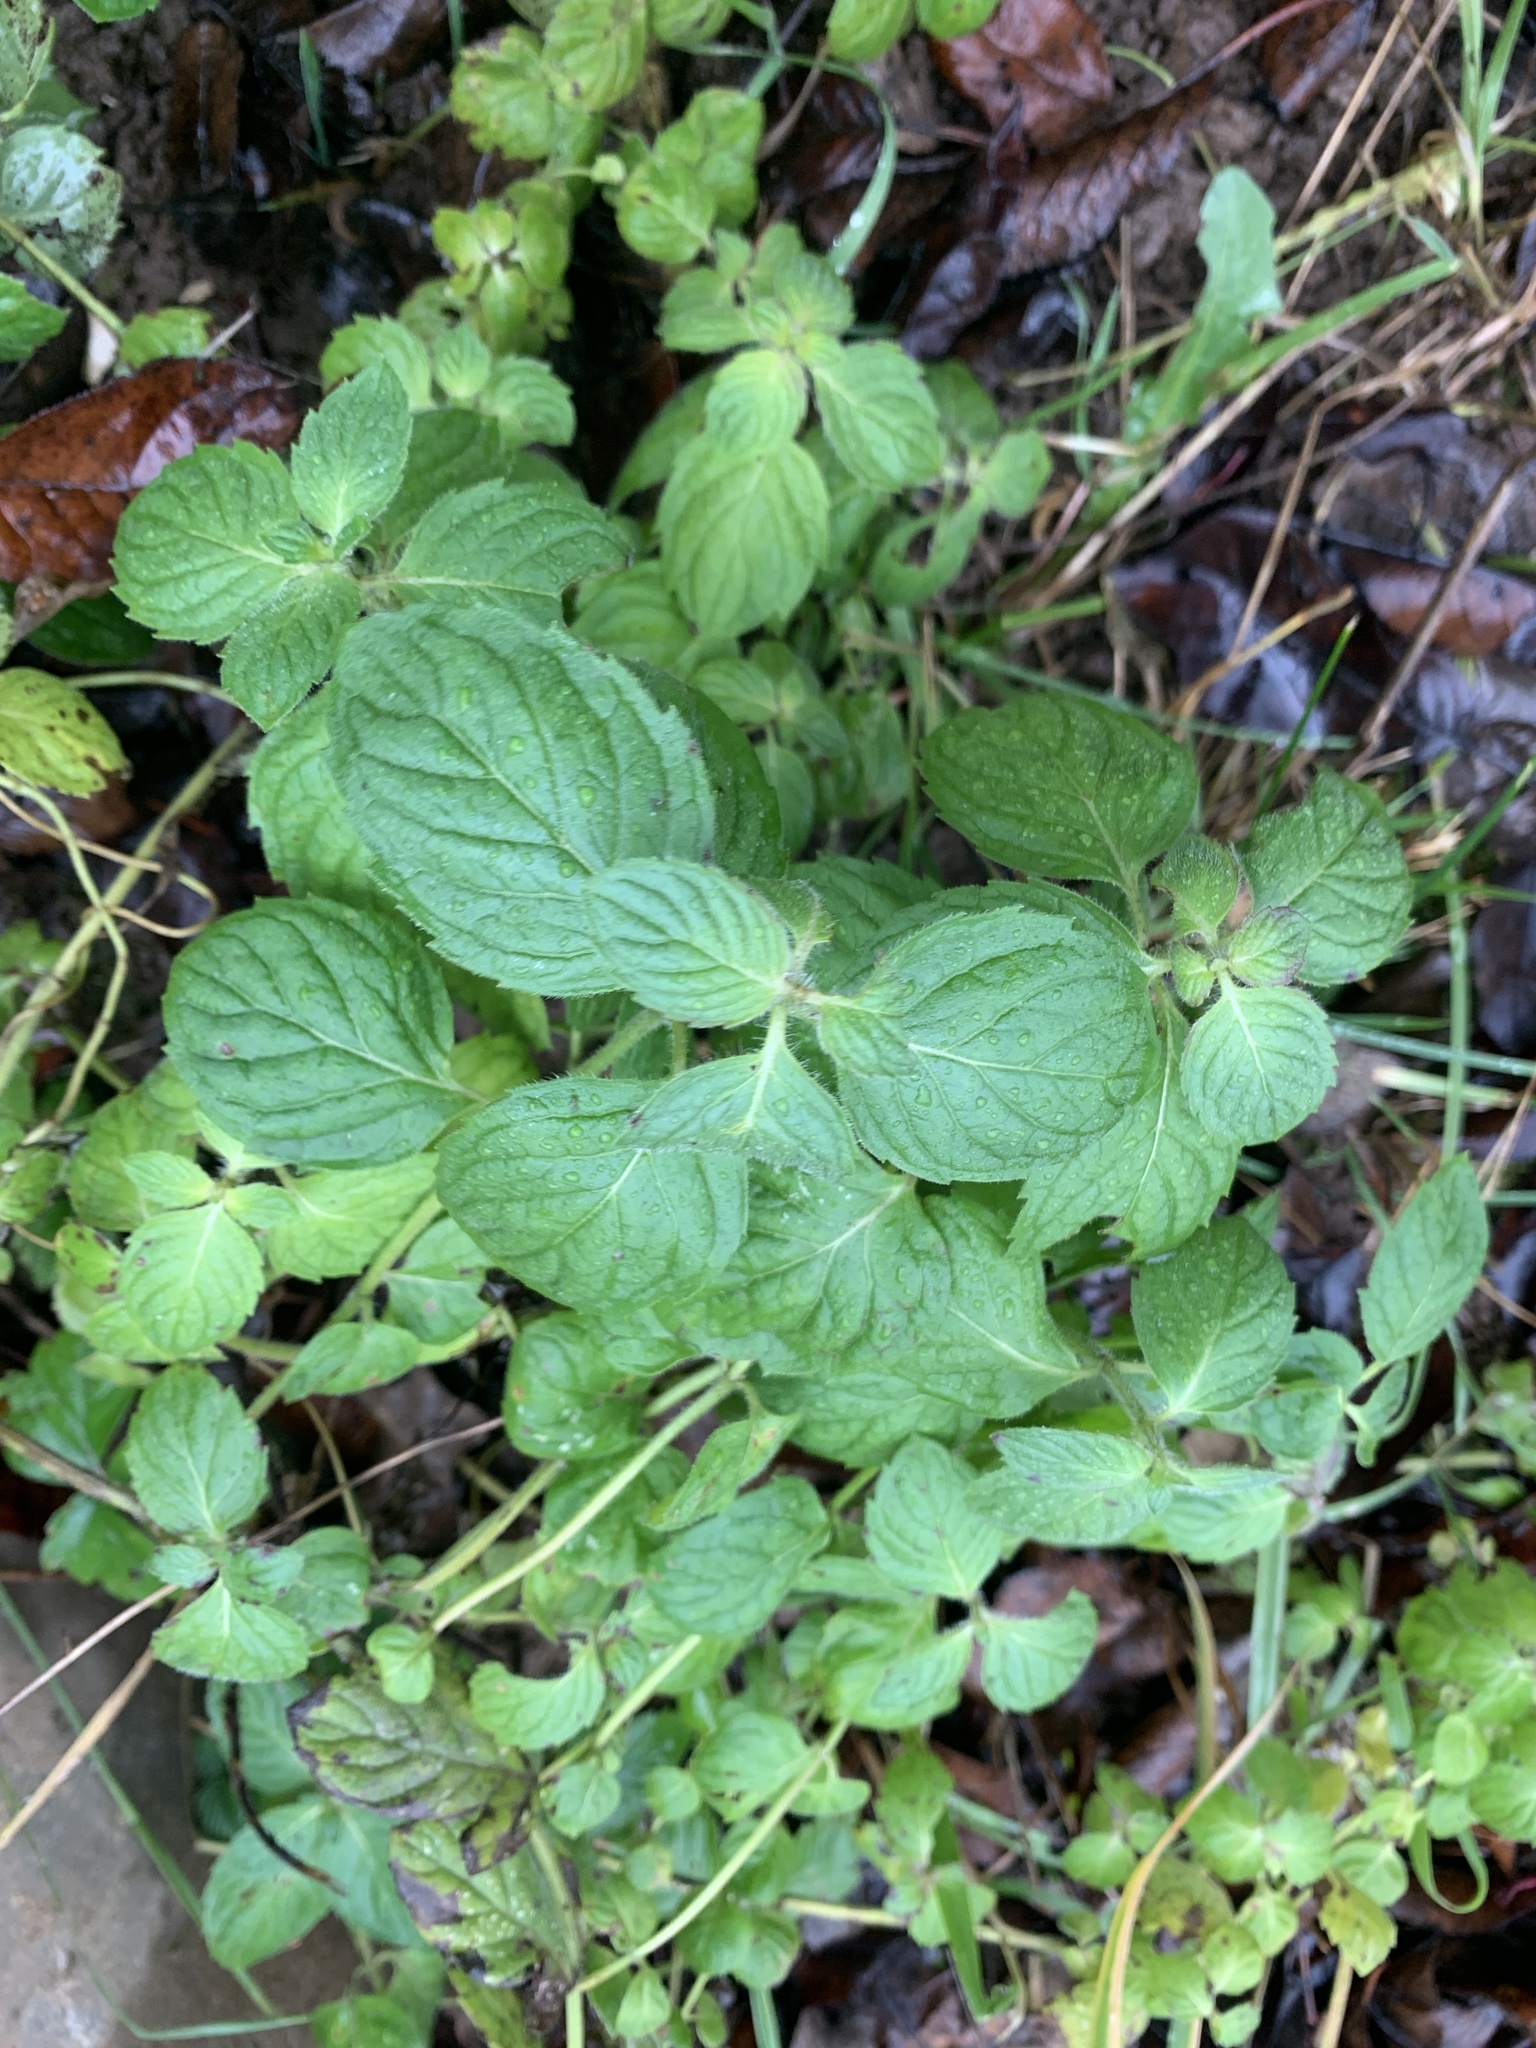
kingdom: Plantae
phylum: Tracheophyta
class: Magnoliopsida
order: Lamiales
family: Lamiaceae
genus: Mentha
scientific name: Mentha arvensis
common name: Corn mint
